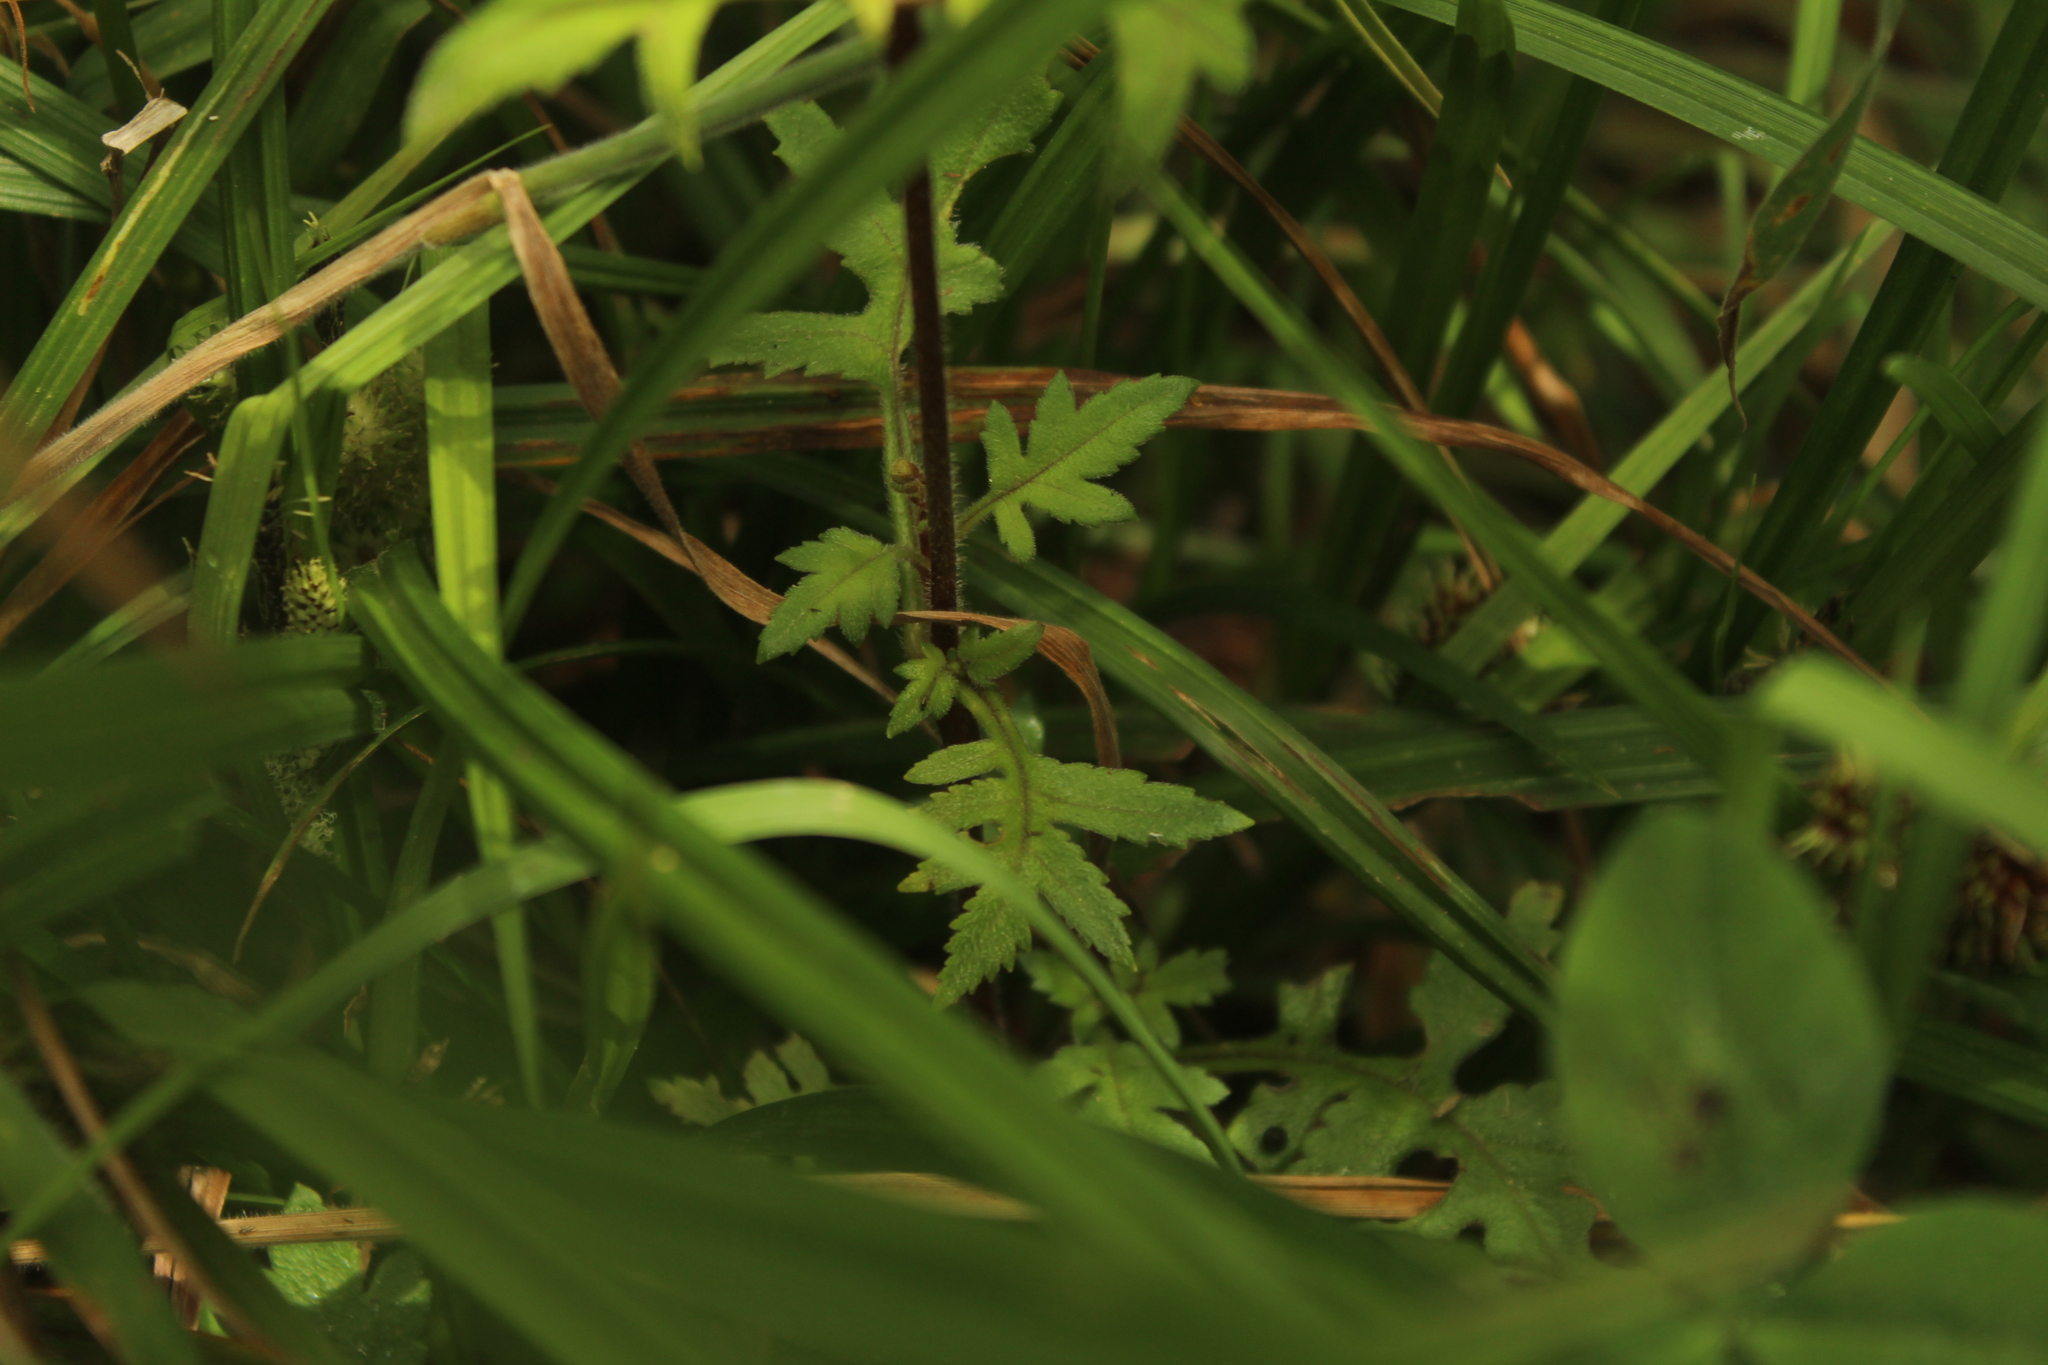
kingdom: Plantae
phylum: Tracheophyta
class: Magnoliopsida
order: Lamiales
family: Calceolariaceae
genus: Calceolaria
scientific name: Calceolaria mexicana
